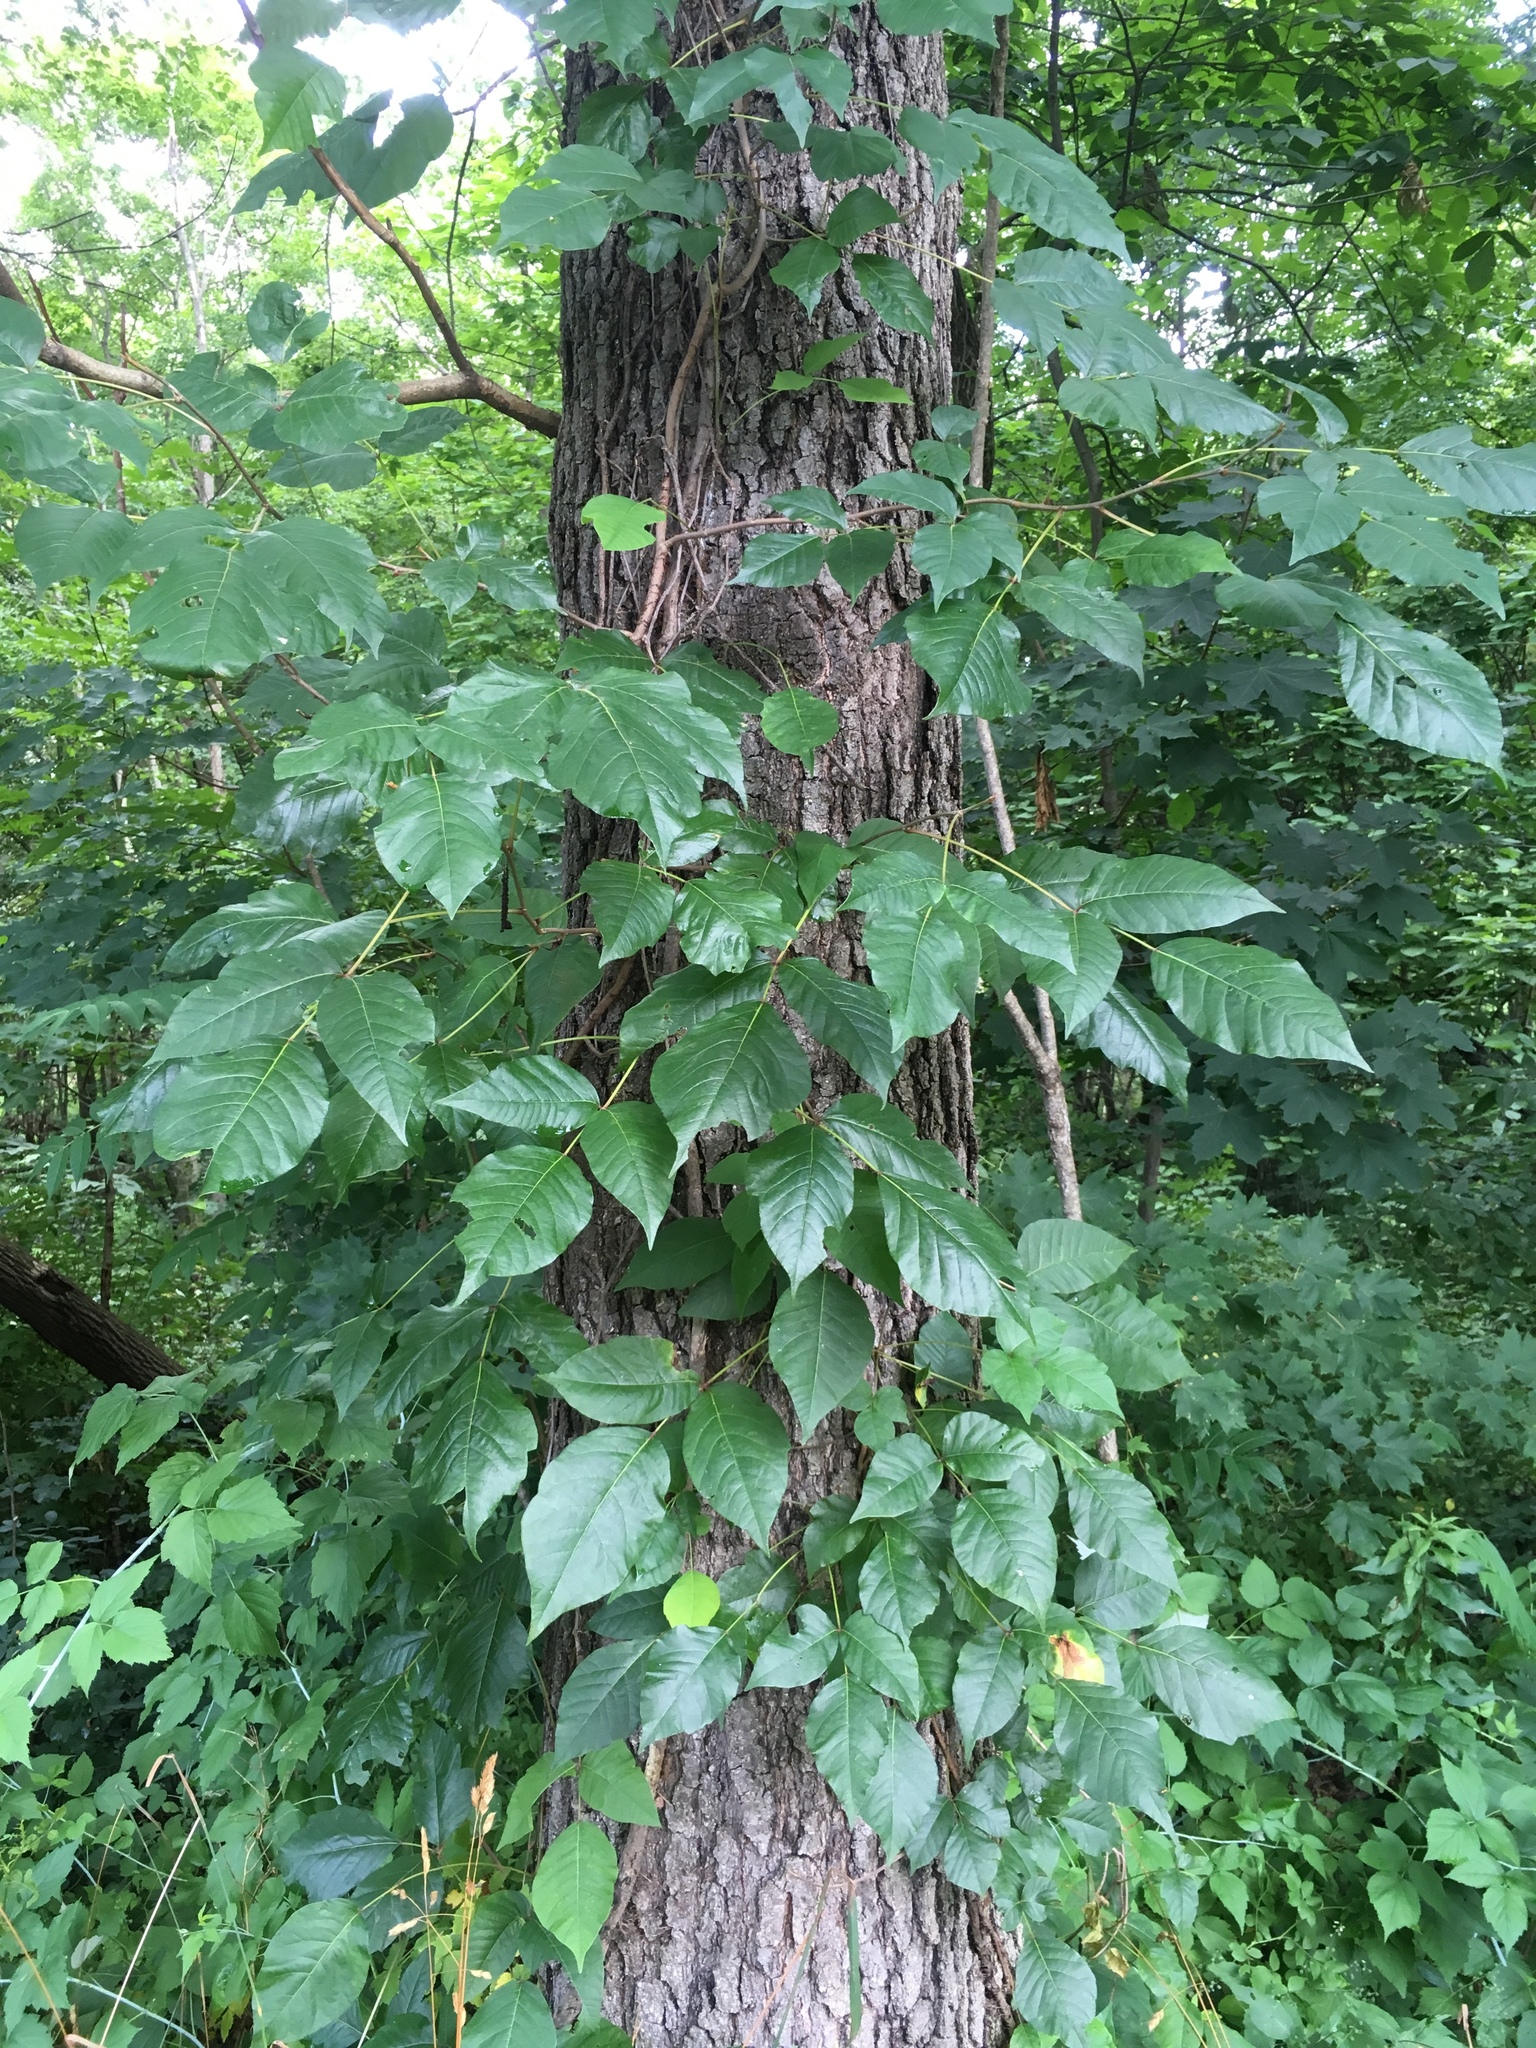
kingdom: Plantae
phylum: Tracheophyta
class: Magnoliopsida
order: Sapindales
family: Anacardiaceae
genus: Toxicodendron
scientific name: Toxicodendron radicans
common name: Poison ivy
